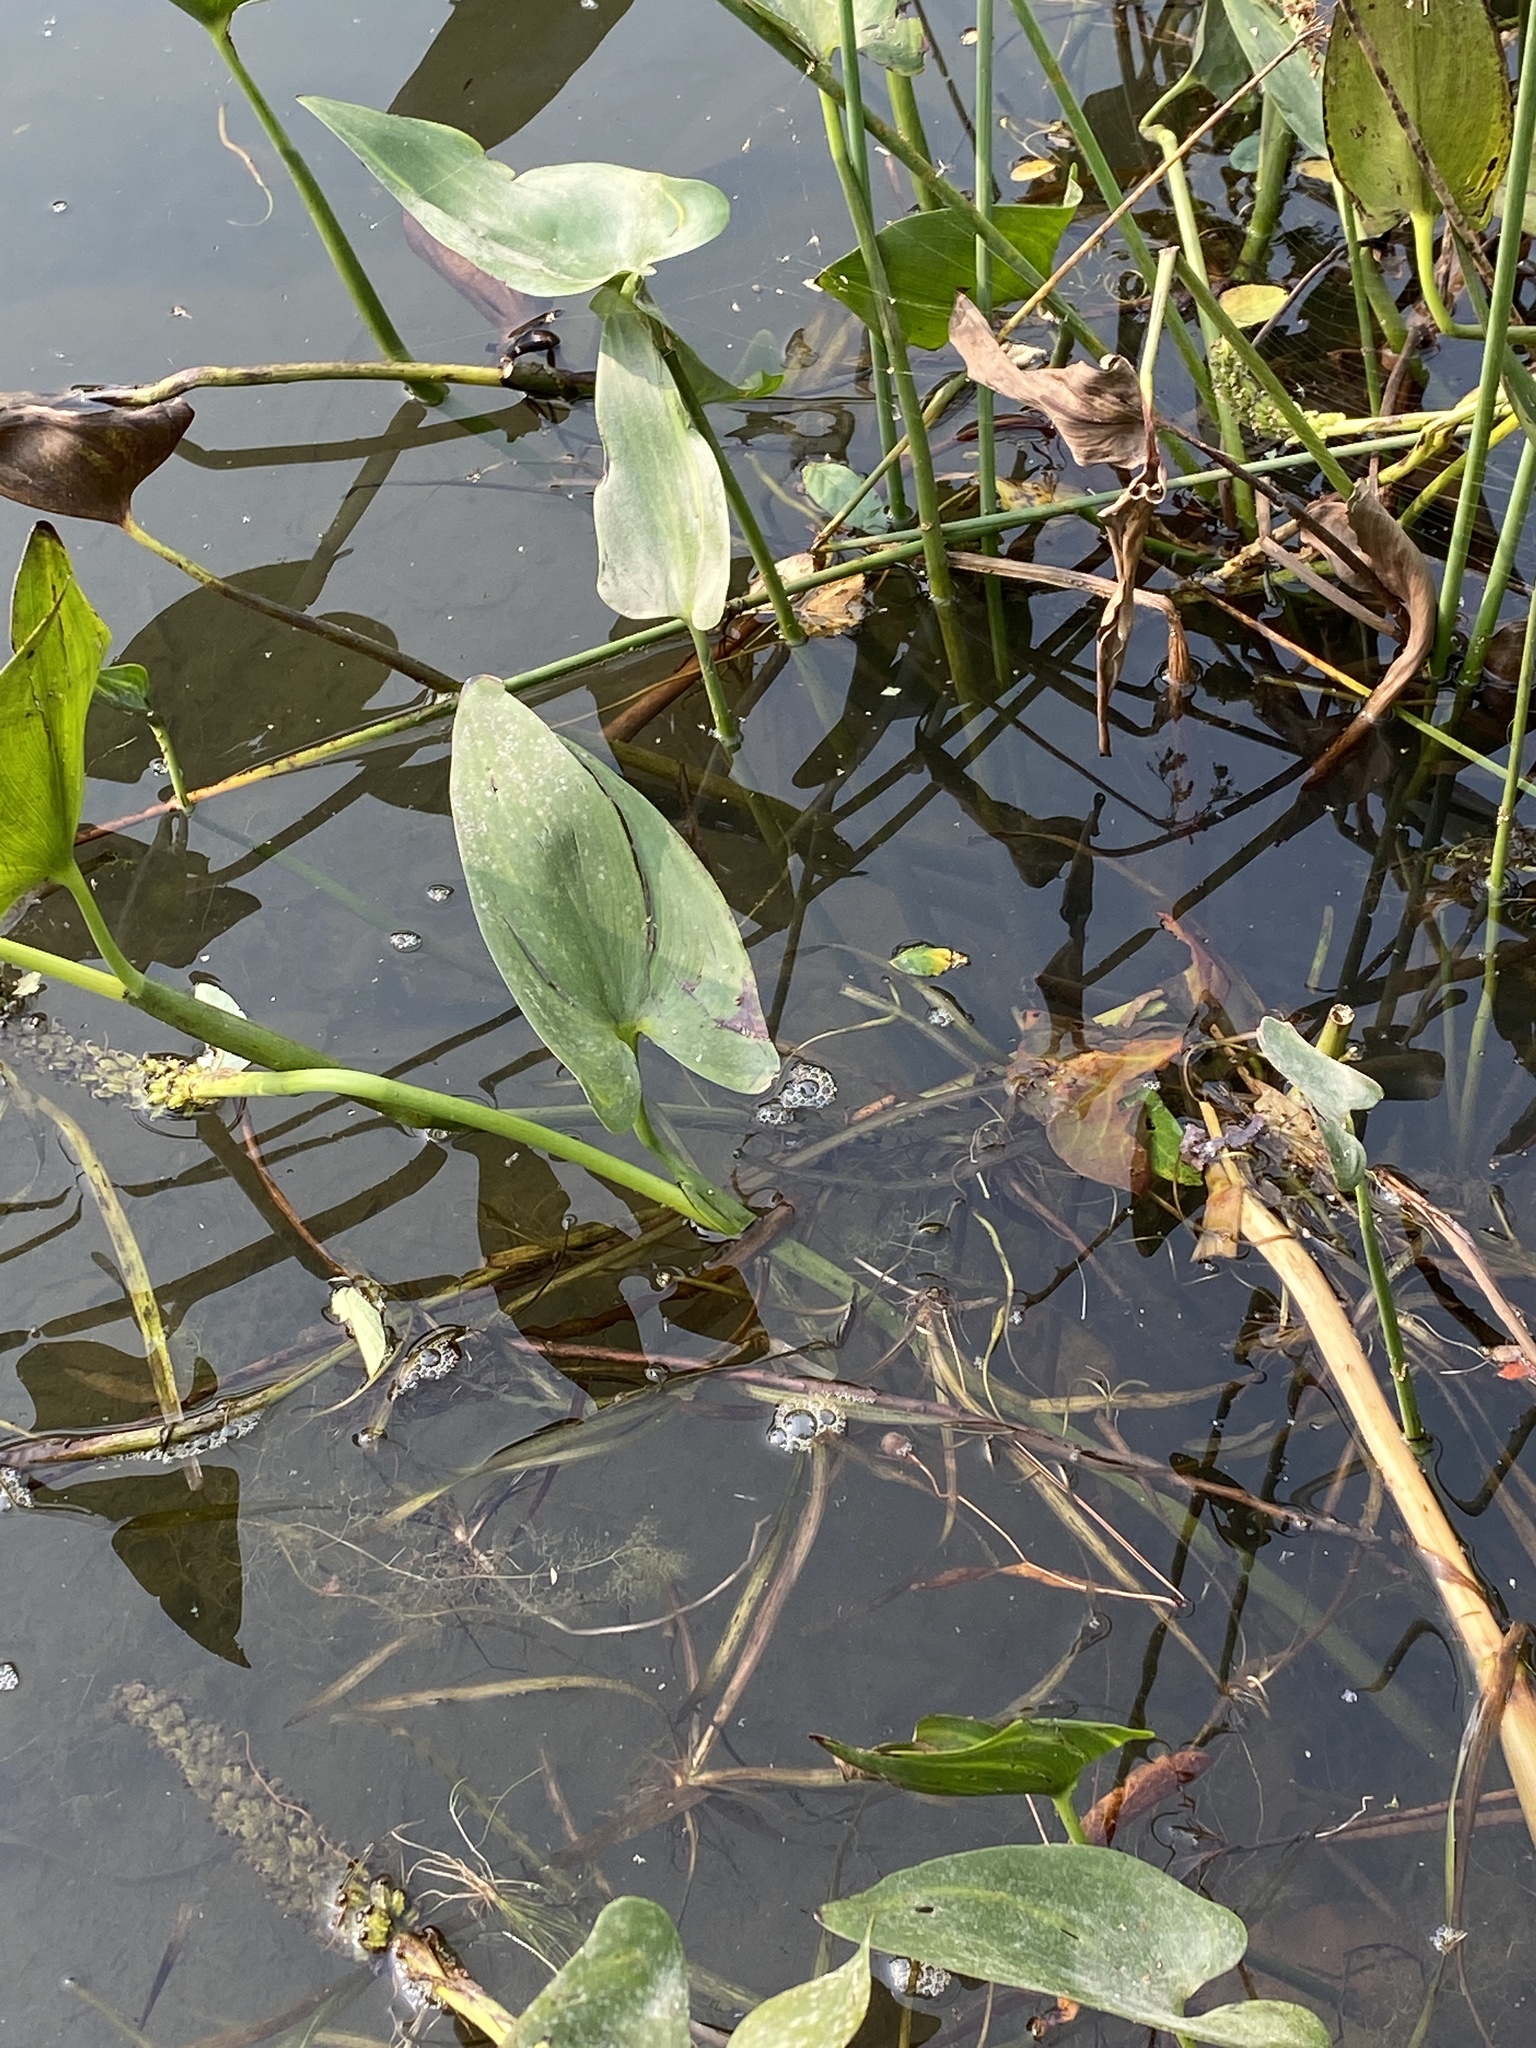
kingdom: Plantae
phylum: Tracheophyta
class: Liliopsida
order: Commelinales
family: Pontederiaceae
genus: Pontederia
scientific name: Pontederia cordata
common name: Pickerelweed
